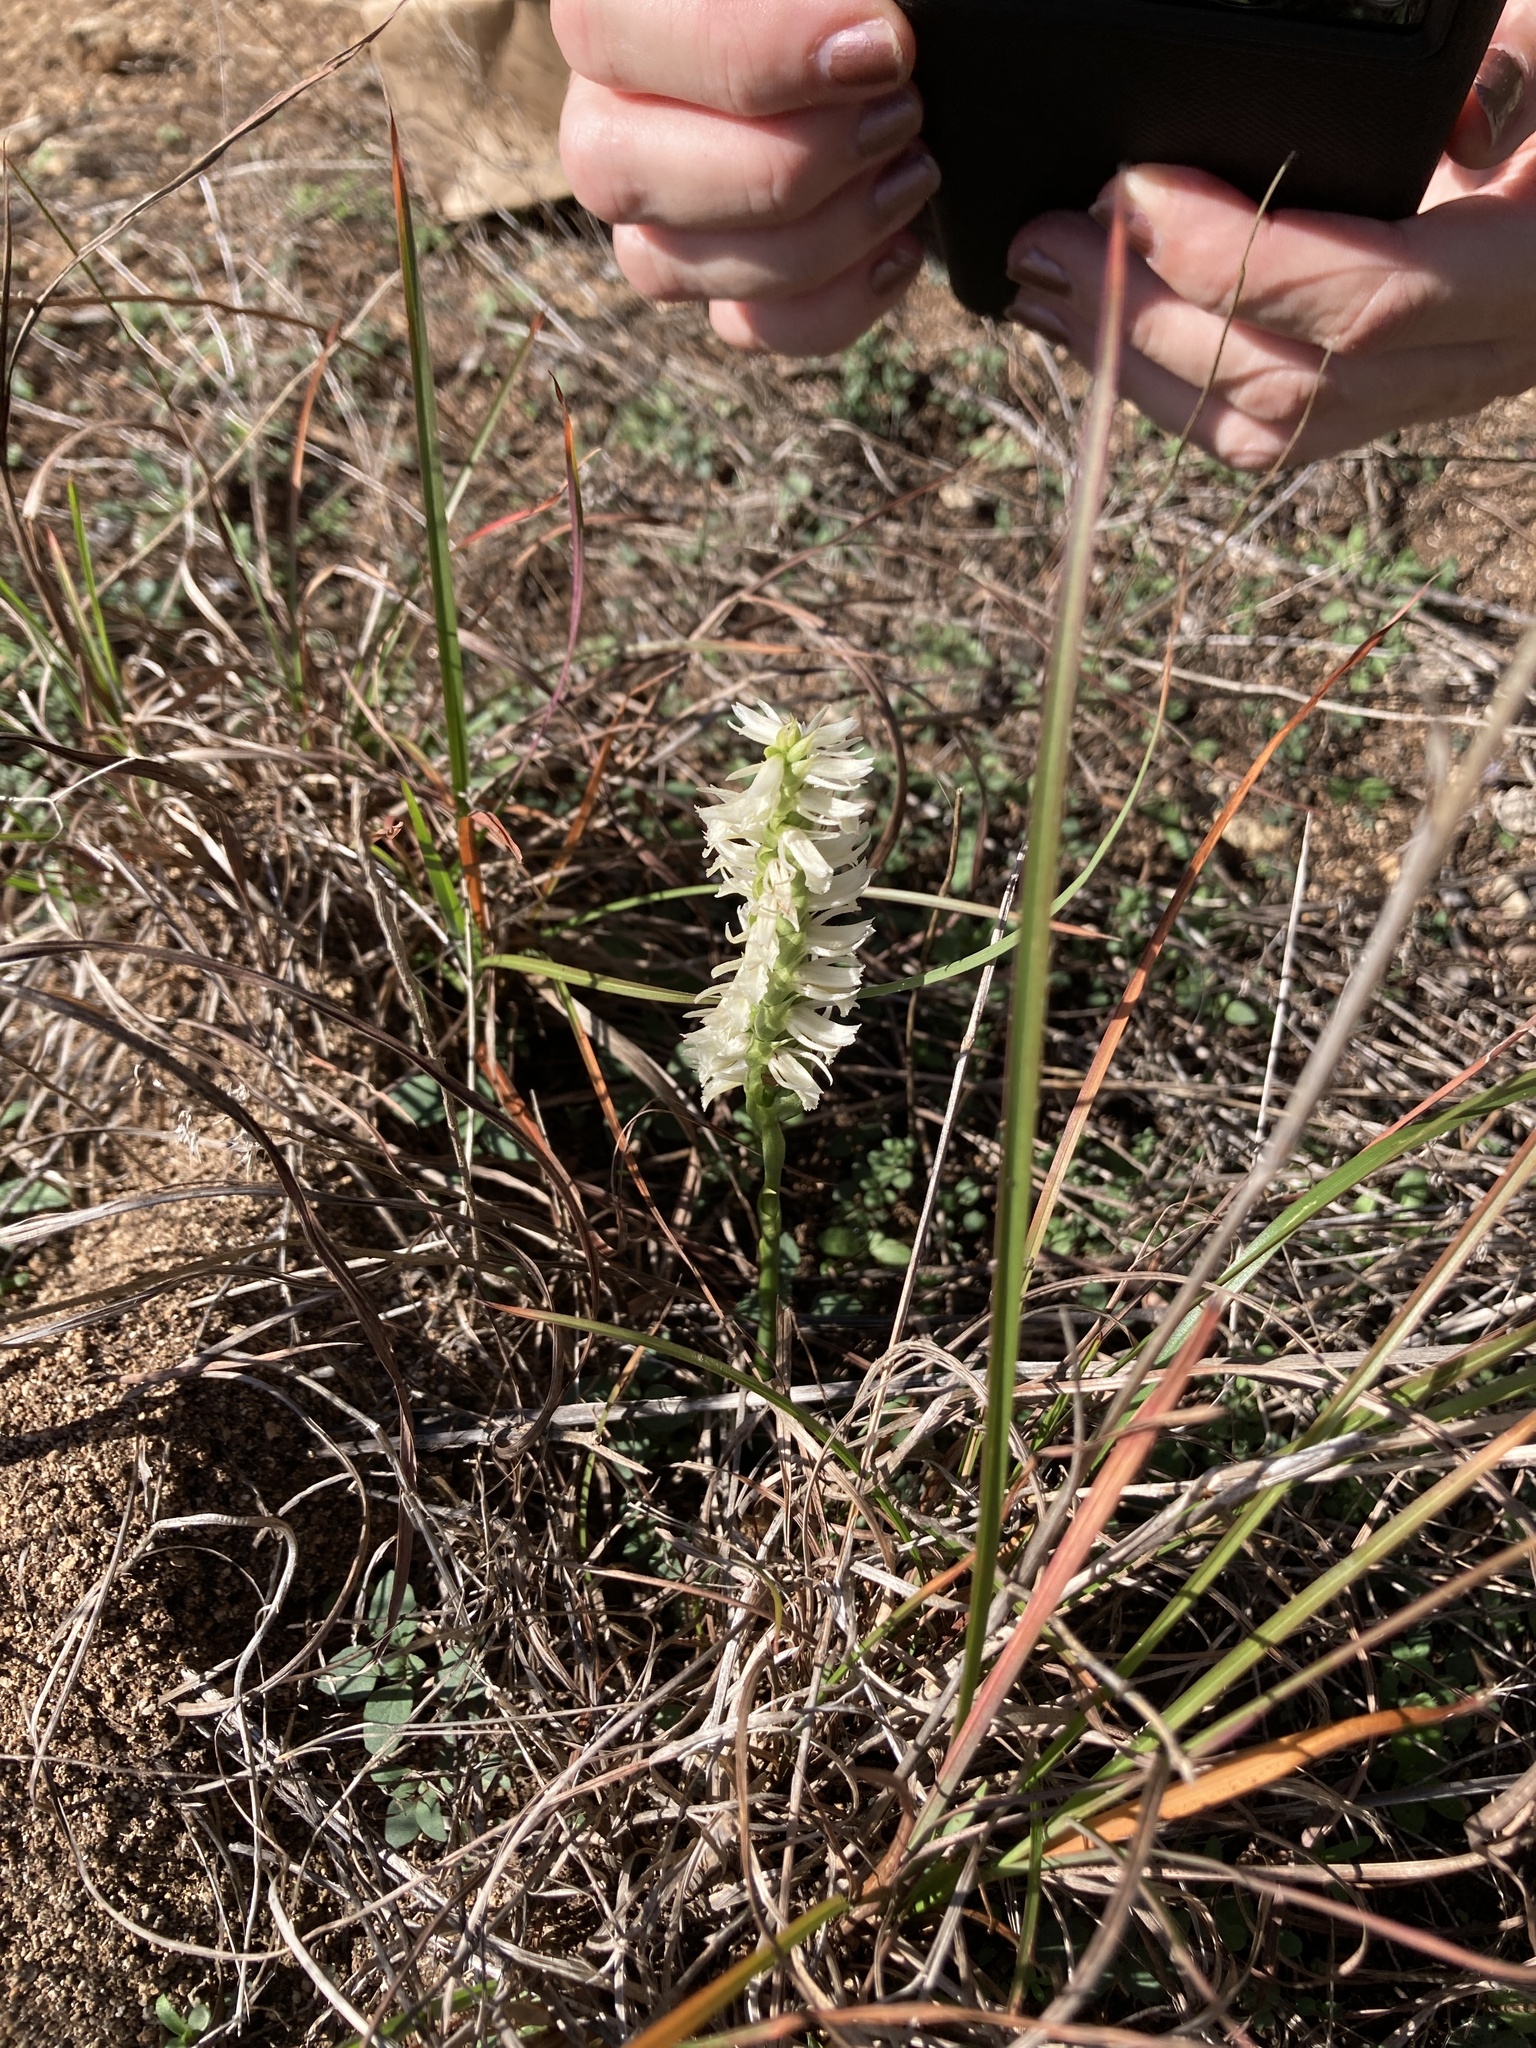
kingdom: Plantae
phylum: Tracheophyta
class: Liliopsida
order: Asparagales
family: Orchidaceae
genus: Spiranthes
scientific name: Spiranthes magnicamporum
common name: Great plains ladies'-tresses
